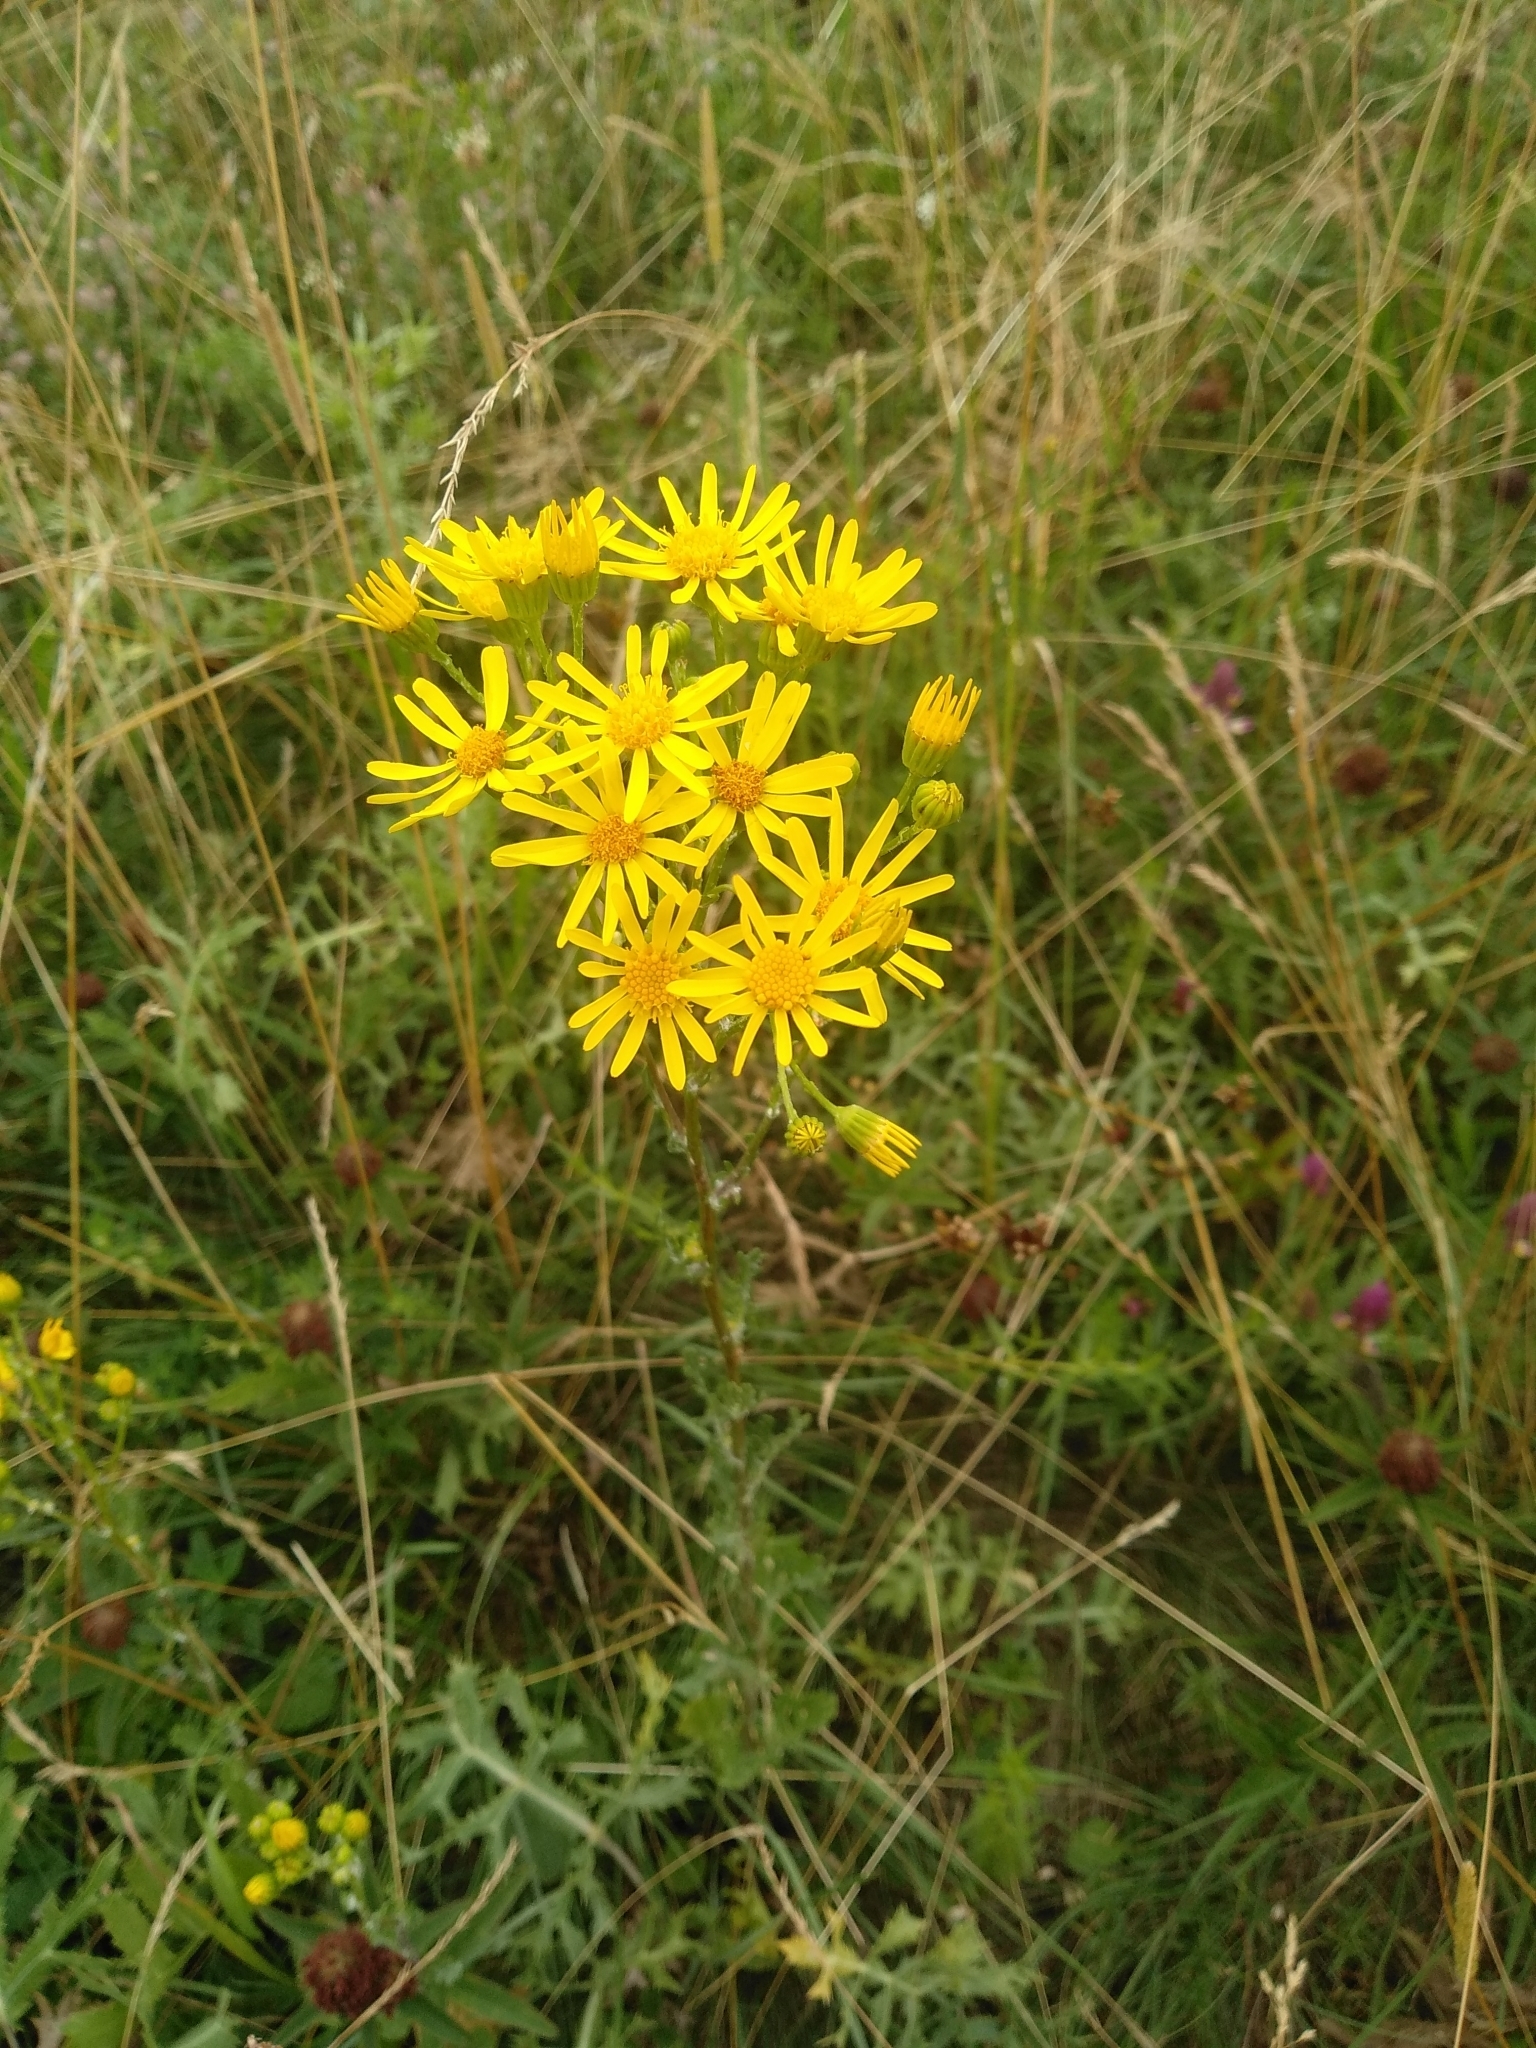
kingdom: Plantae
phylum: Tracheophyta
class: Magnoliopsida
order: Asterales
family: Asteraceae
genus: Jacobaea
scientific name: Jacobaea vulgaris
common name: Stinking willie
